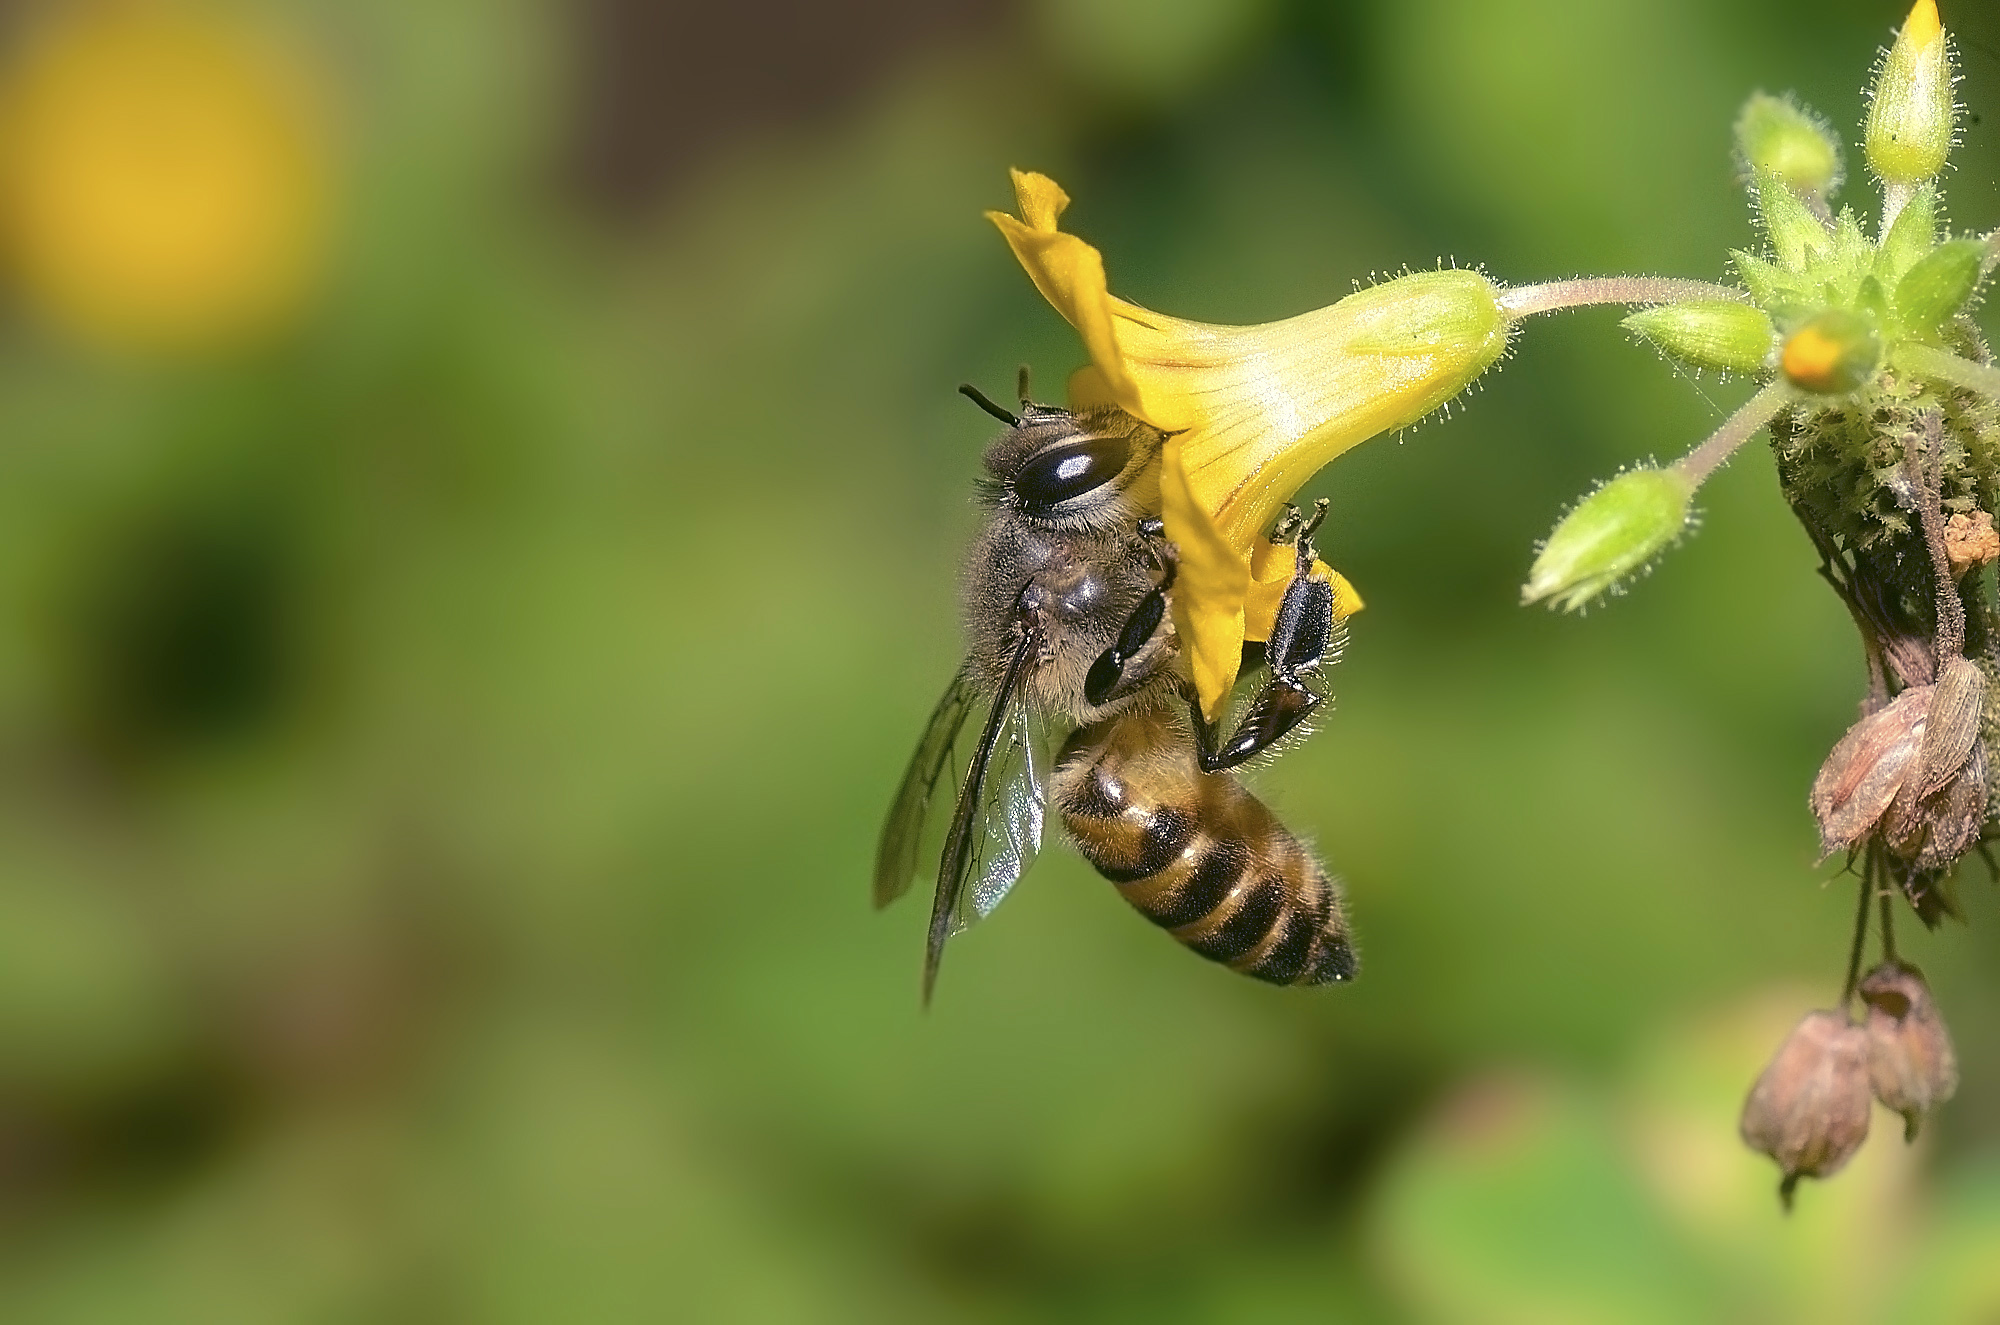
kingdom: Animalia
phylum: Arthropoda
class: Insecta
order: Hymenoptera
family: Apidae
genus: Apis
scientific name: Apis cerana
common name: Honey bee
